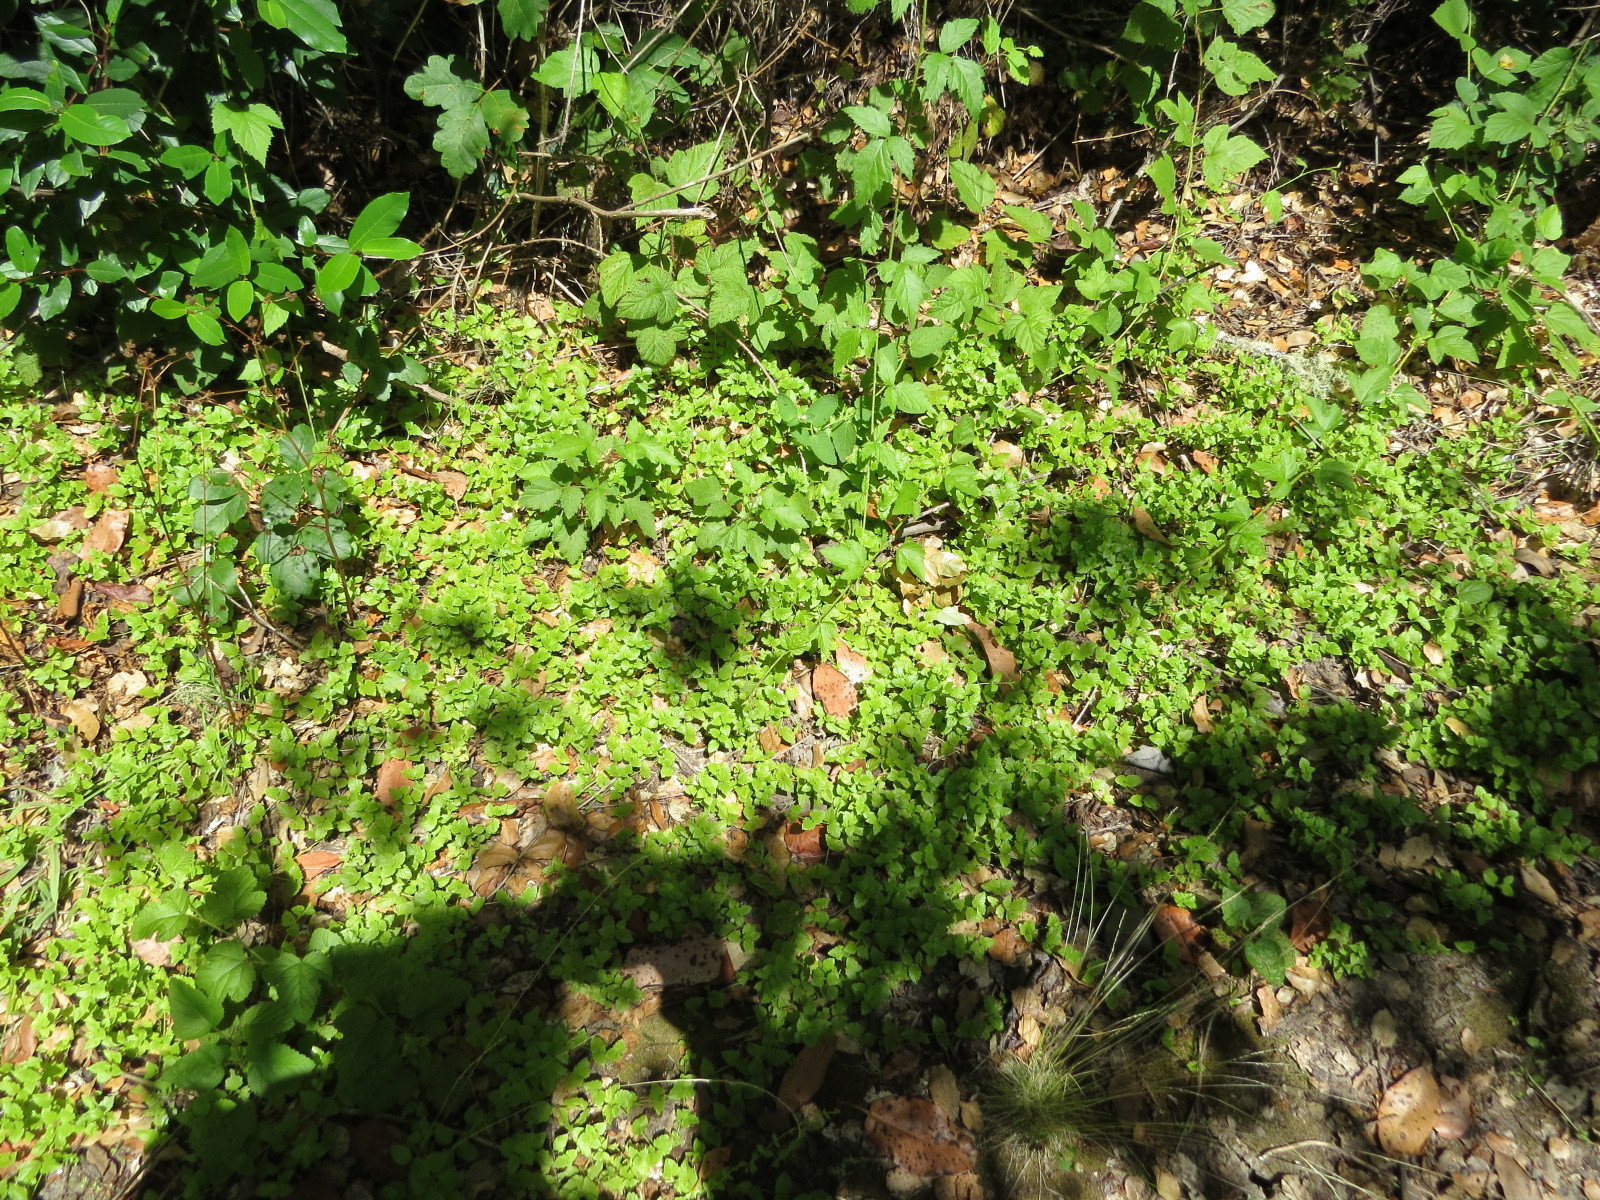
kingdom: Plantae
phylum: Tracheophyta
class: Magnoliopsida
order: Lamiales
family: Lamiaceae
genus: Micromeria
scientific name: Micromeria douglasii
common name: Yerba buena
